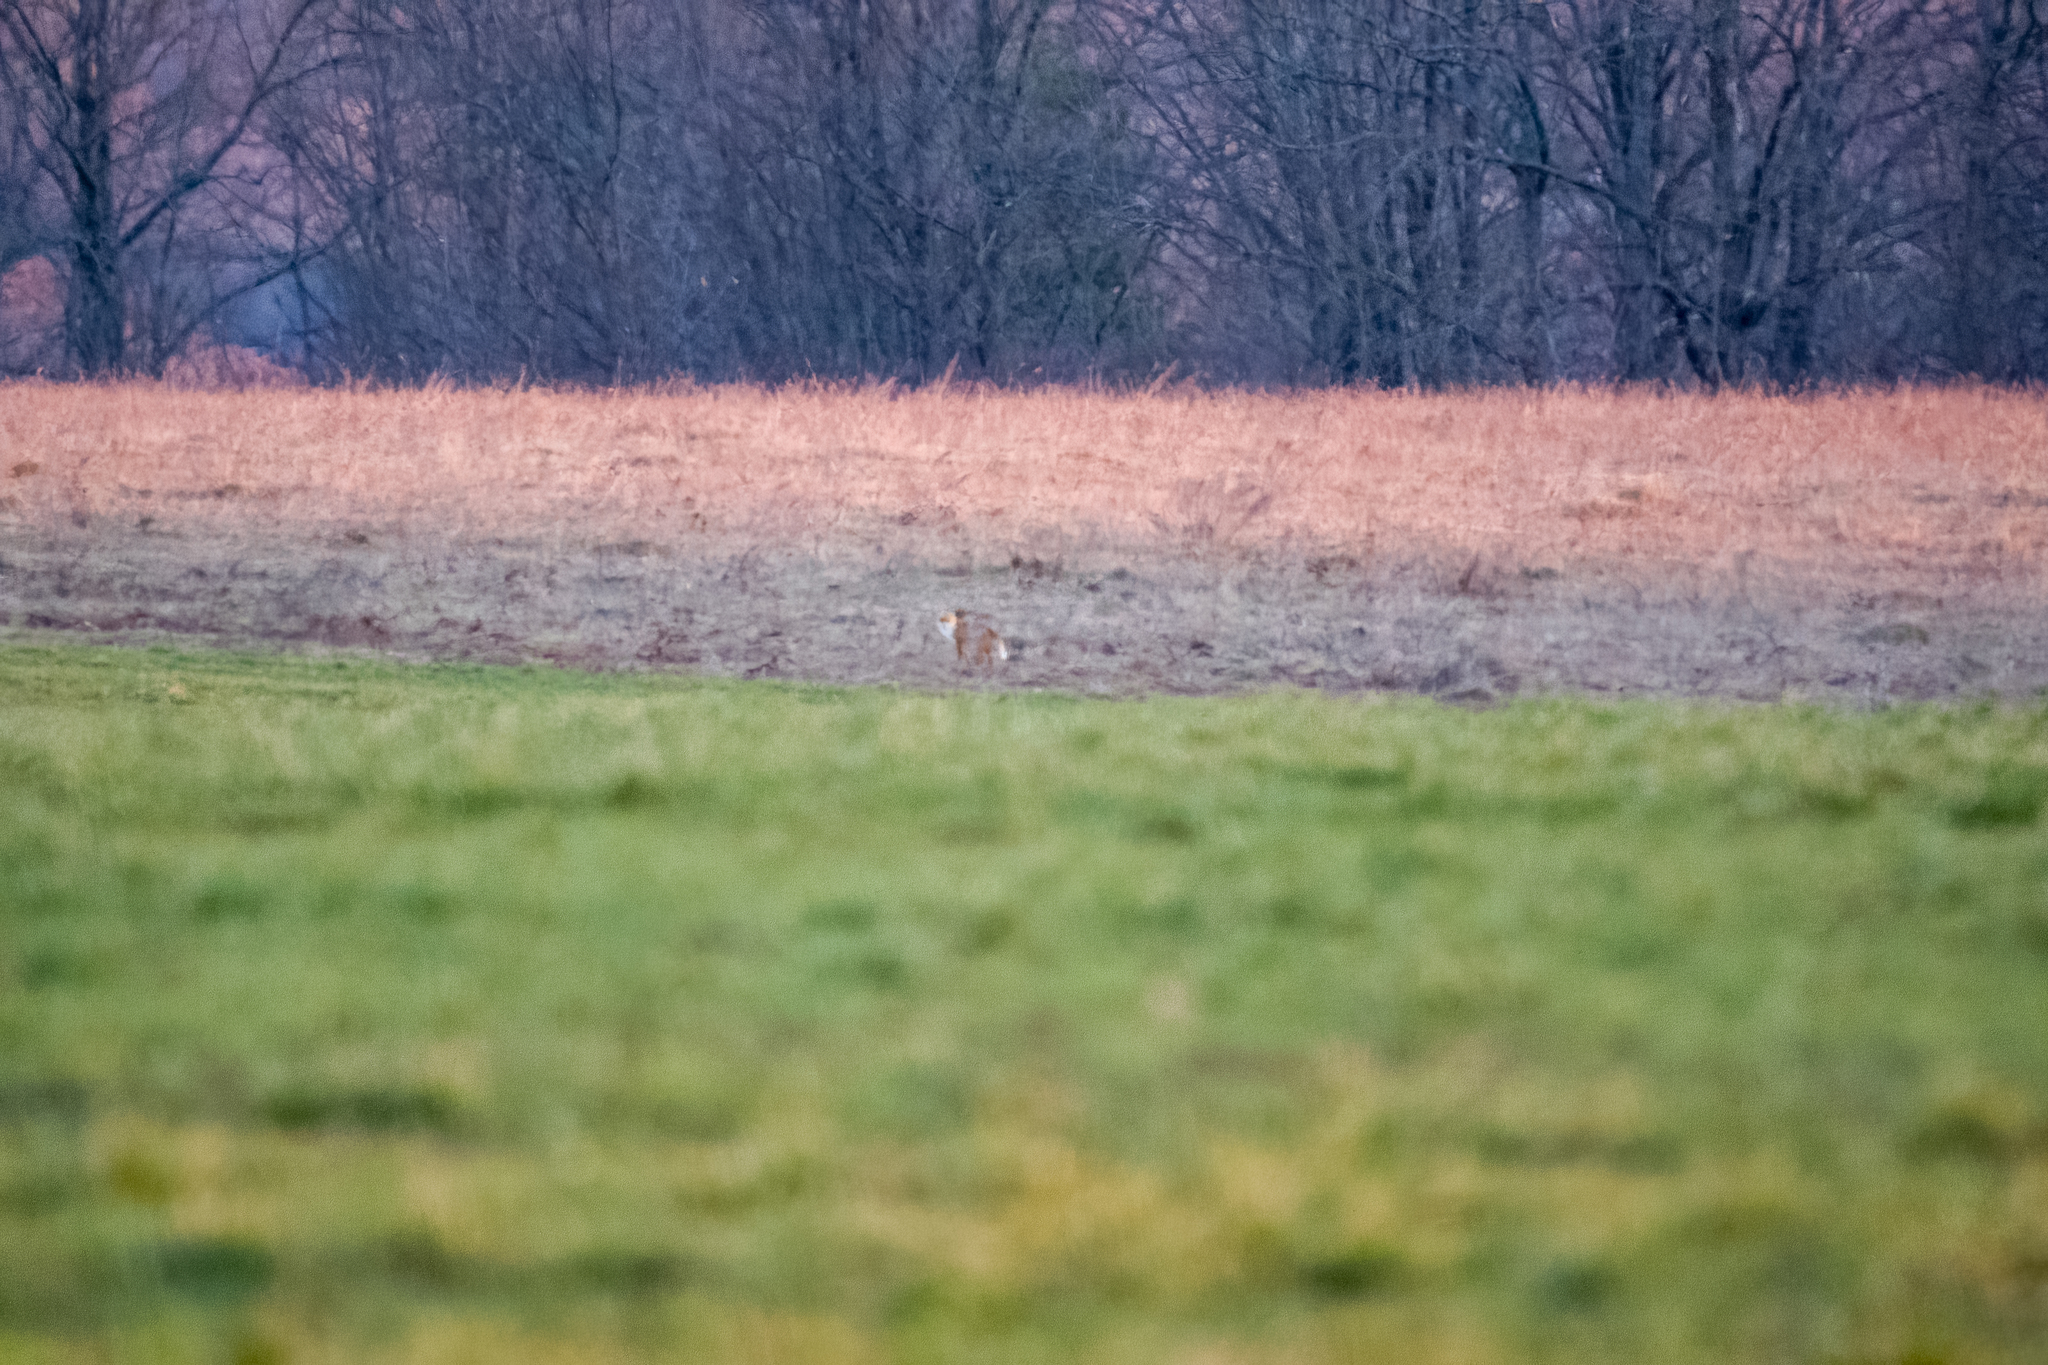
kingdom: Animalia
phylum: Chordata
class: Mammalia
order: Carnivora
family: Canidae
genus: Vulpes
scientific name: Vulpes vulpes
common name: Red fox
